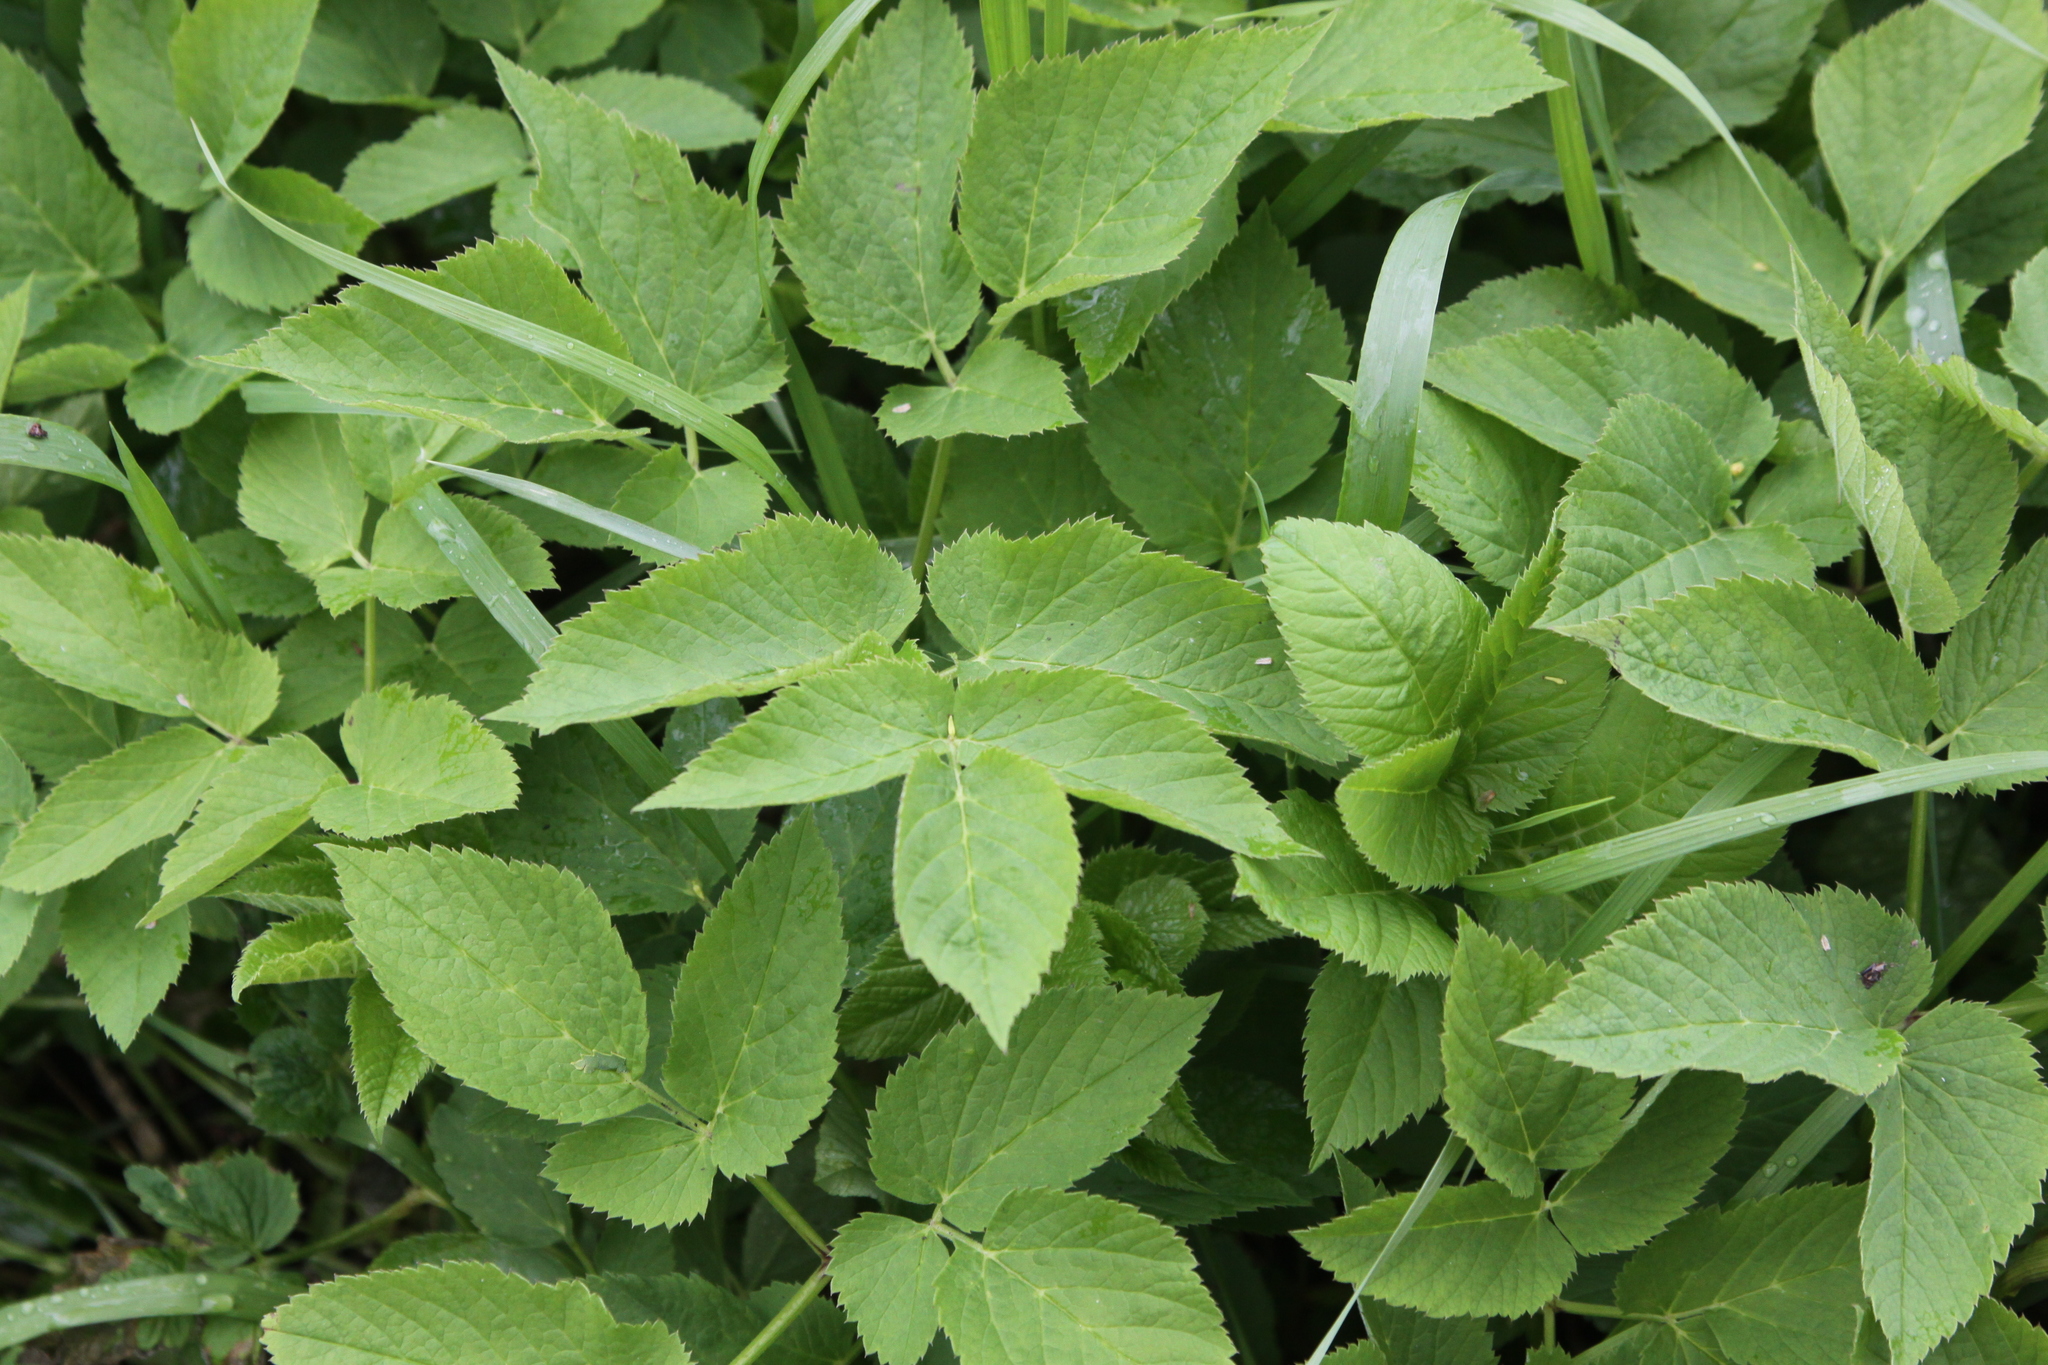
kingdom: Plantae
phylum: Tracheophyta
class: Magnoliopsida
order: Apiales
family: Apiaceae
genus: Aegopodium
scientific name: Aegopodium podagraria
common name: Ground-elder
